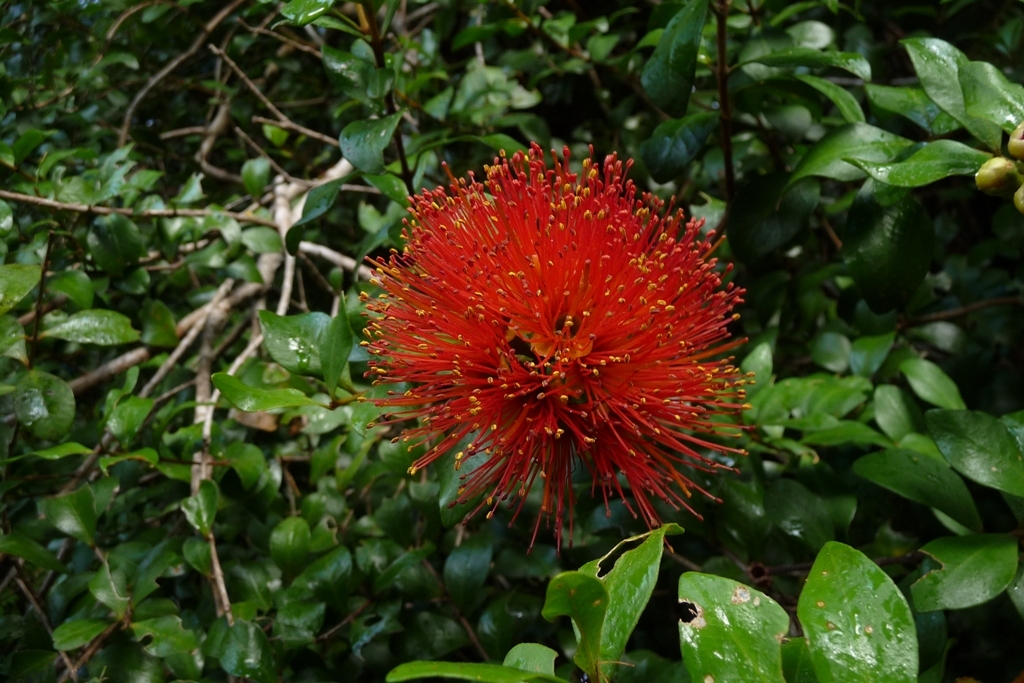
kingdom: Plantae
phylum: Tracheophyta
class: Magnoliopsida
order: Myrtales
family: Myrtaceae
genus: Metrosideros
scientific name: Metrosideros fulgens
